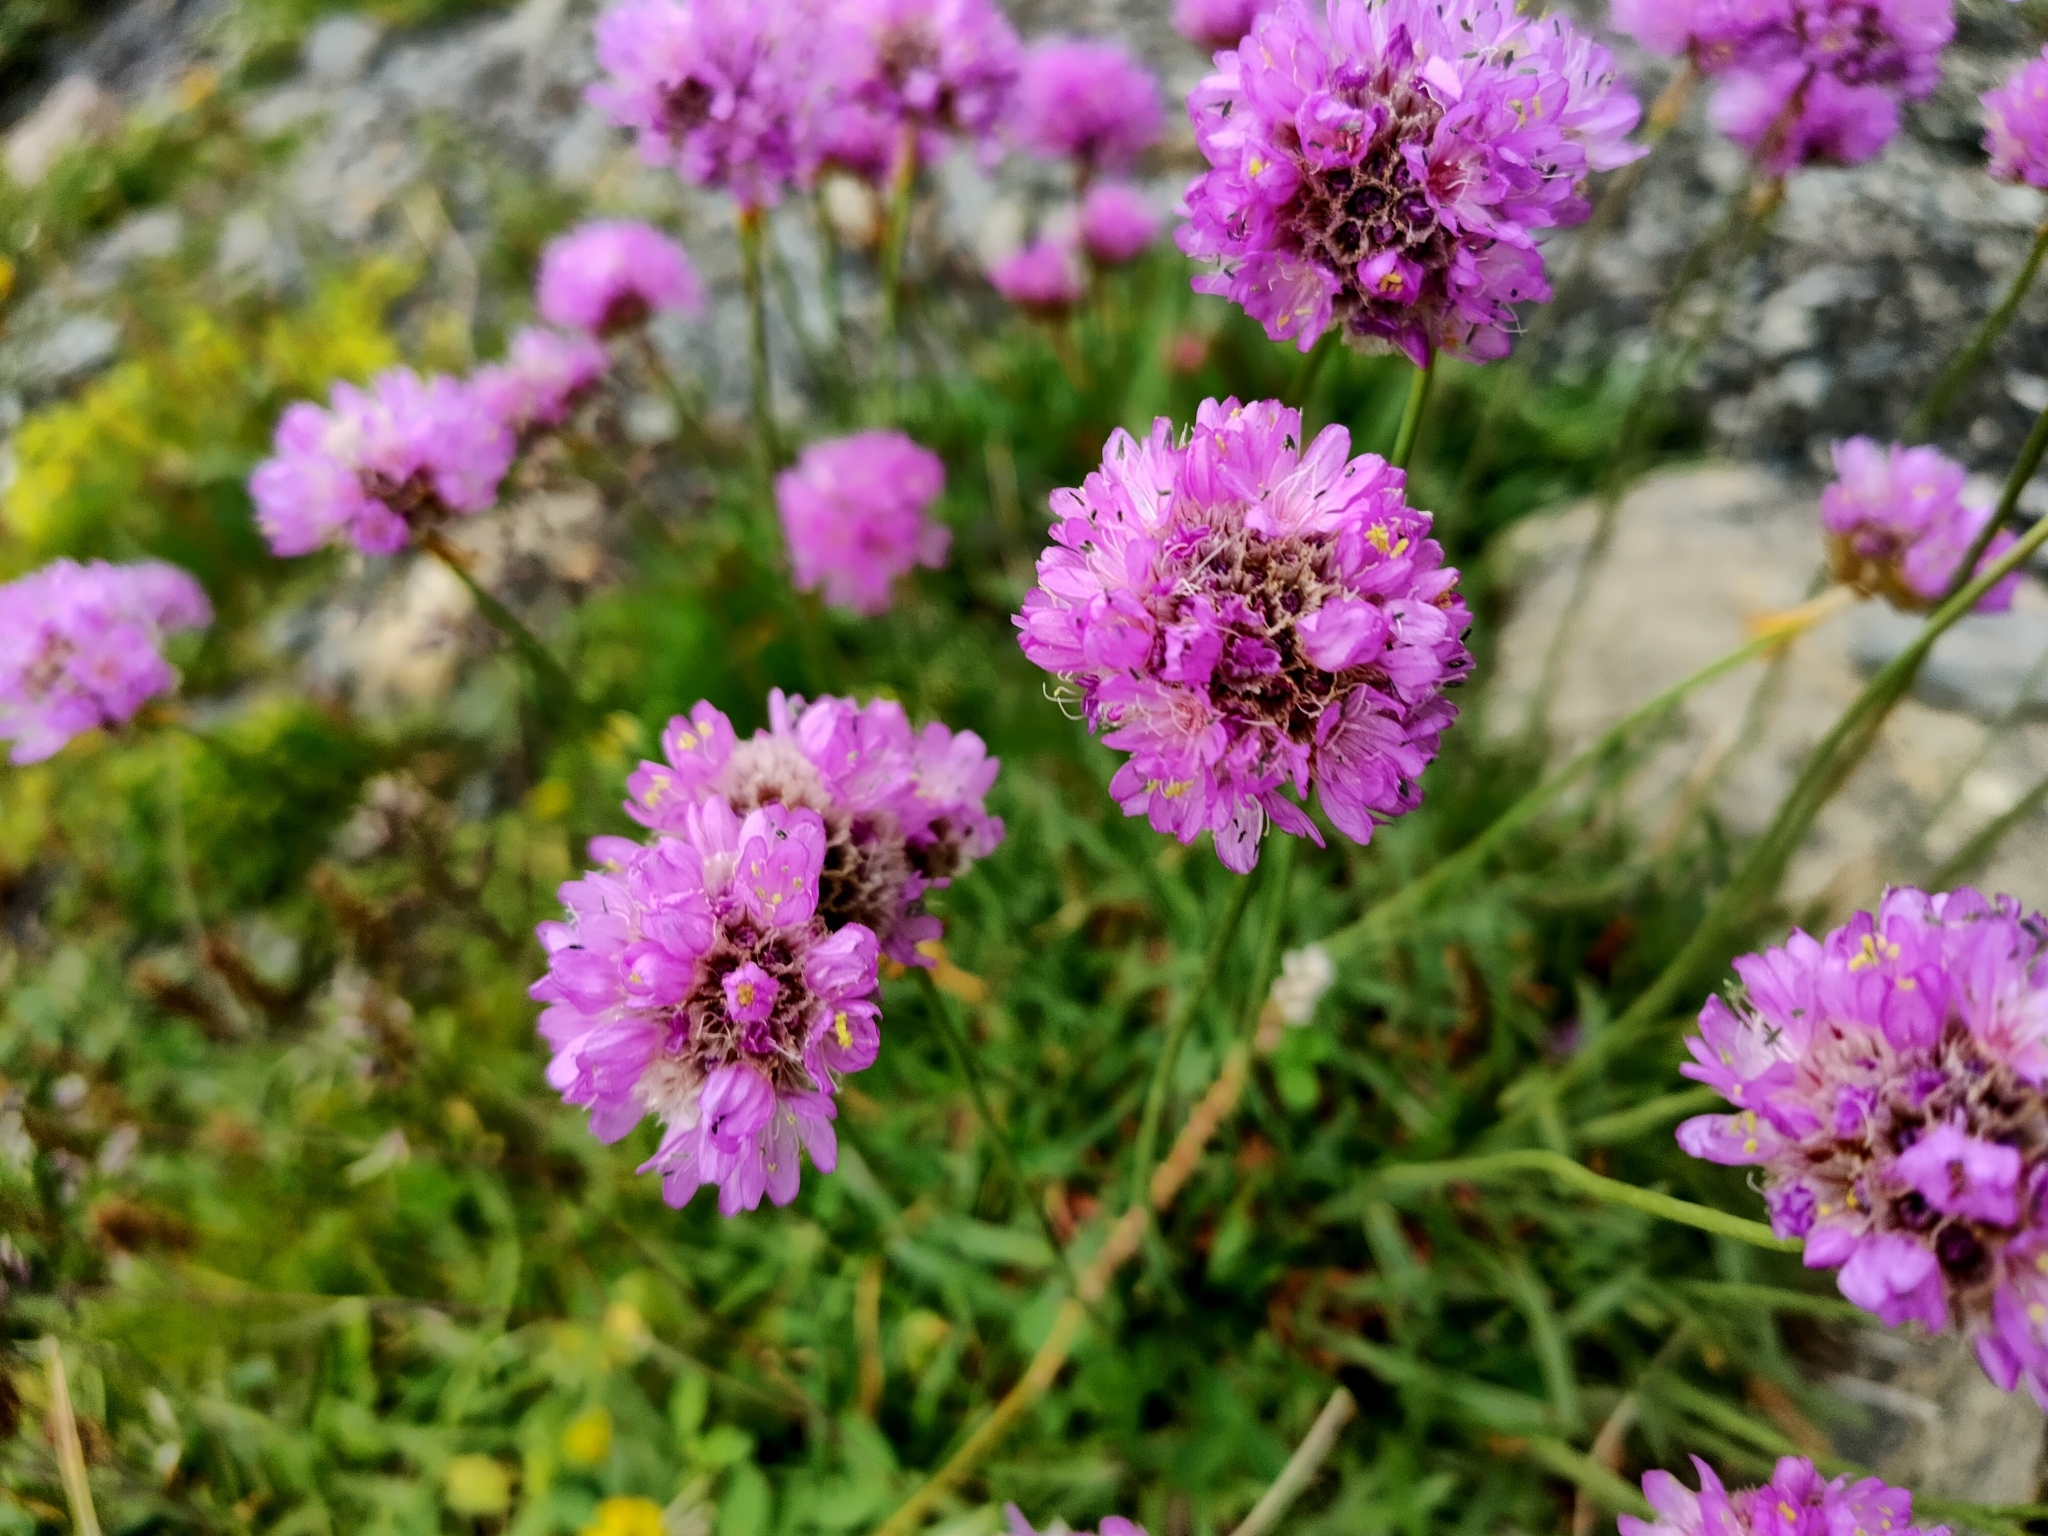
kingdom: Plantae
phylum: Tracheophyta
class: Magnoliopsida
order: Caryophyllales
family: Plumbaginaceae
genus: Armeria
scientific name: Armeria alpina
